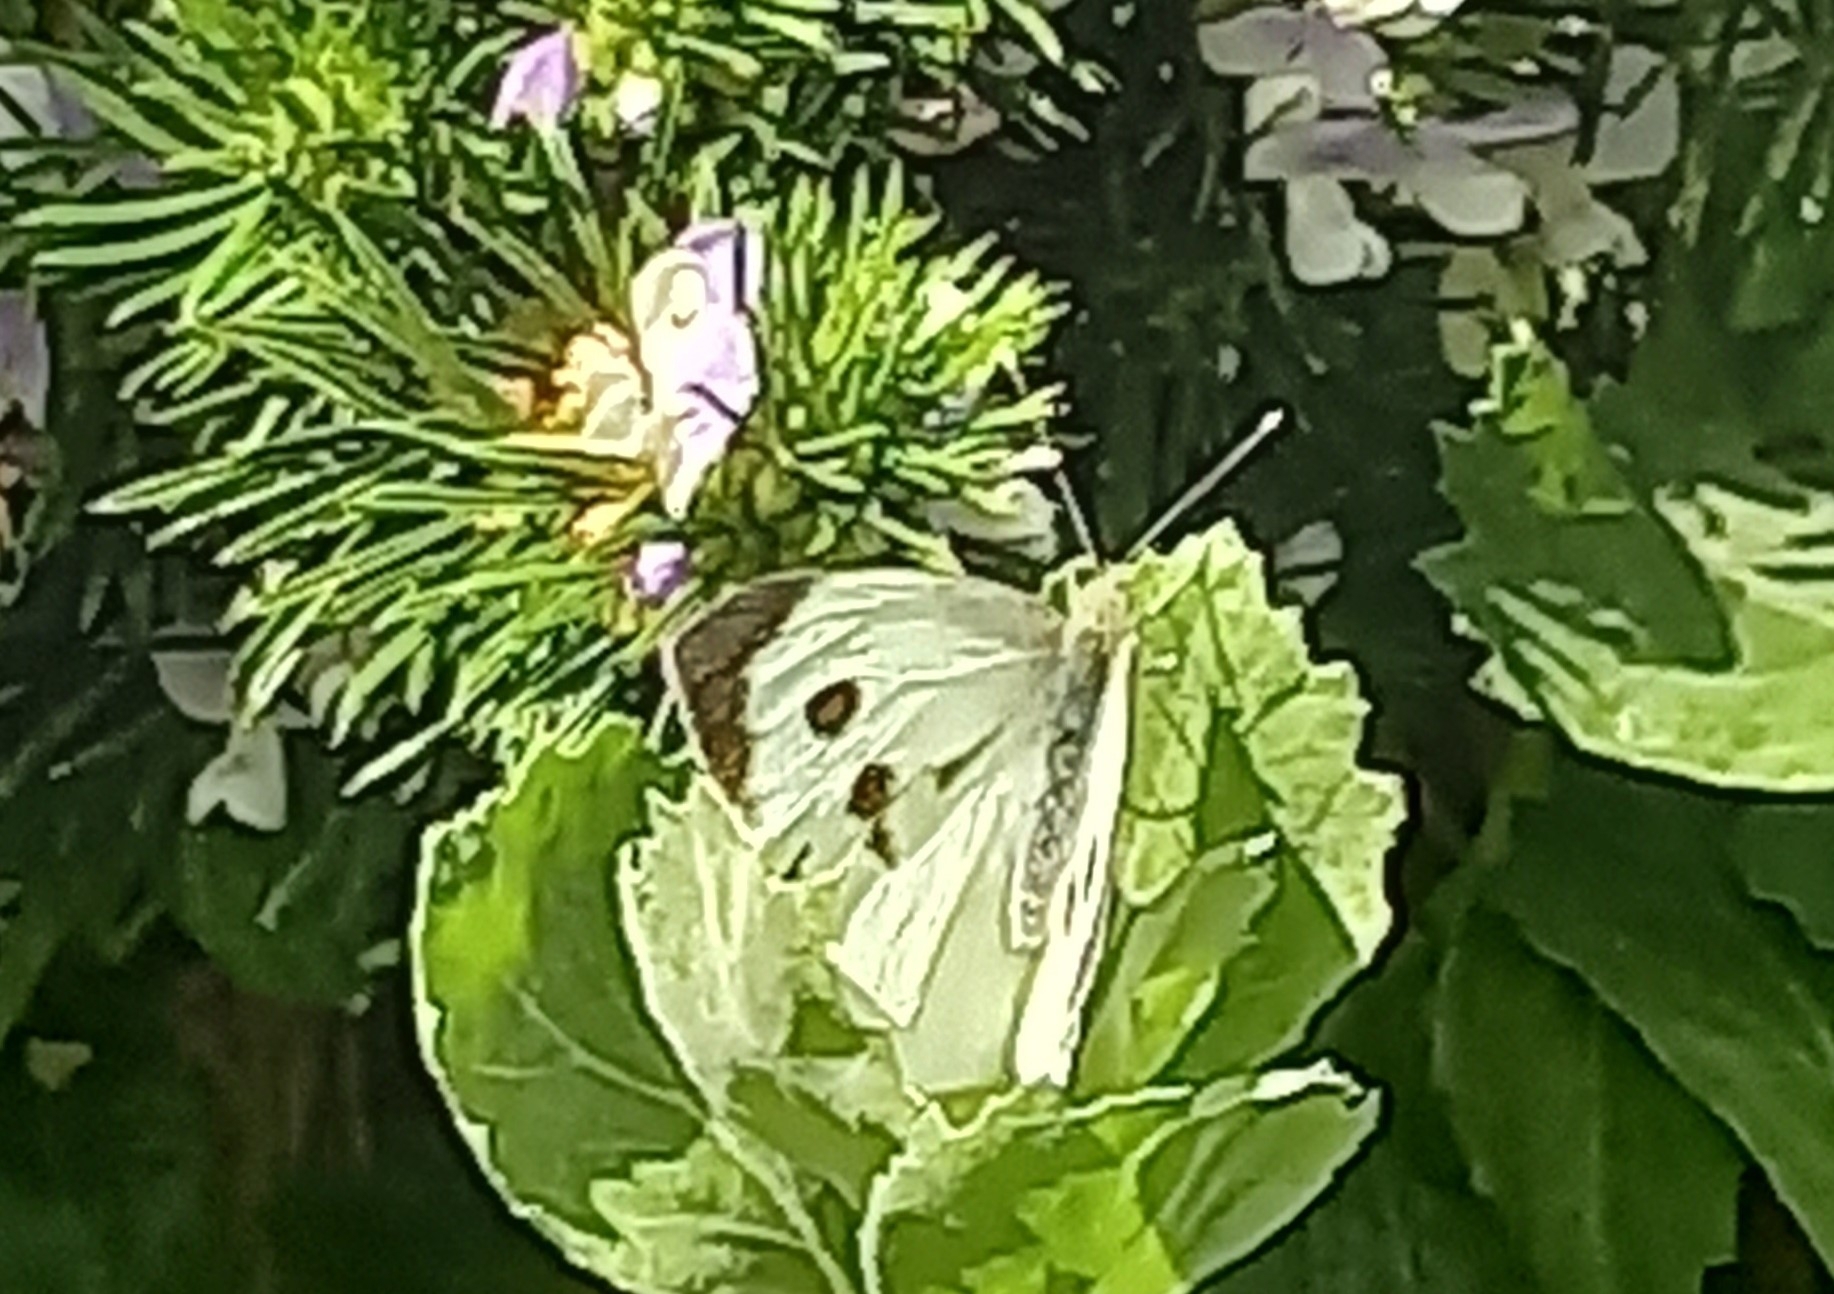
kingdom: Animalia
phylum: Arthropoda
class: Insecta
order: Lepidoptera
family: Pieridae
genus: Pieris
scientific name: Pieris brassicae
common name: Large white
